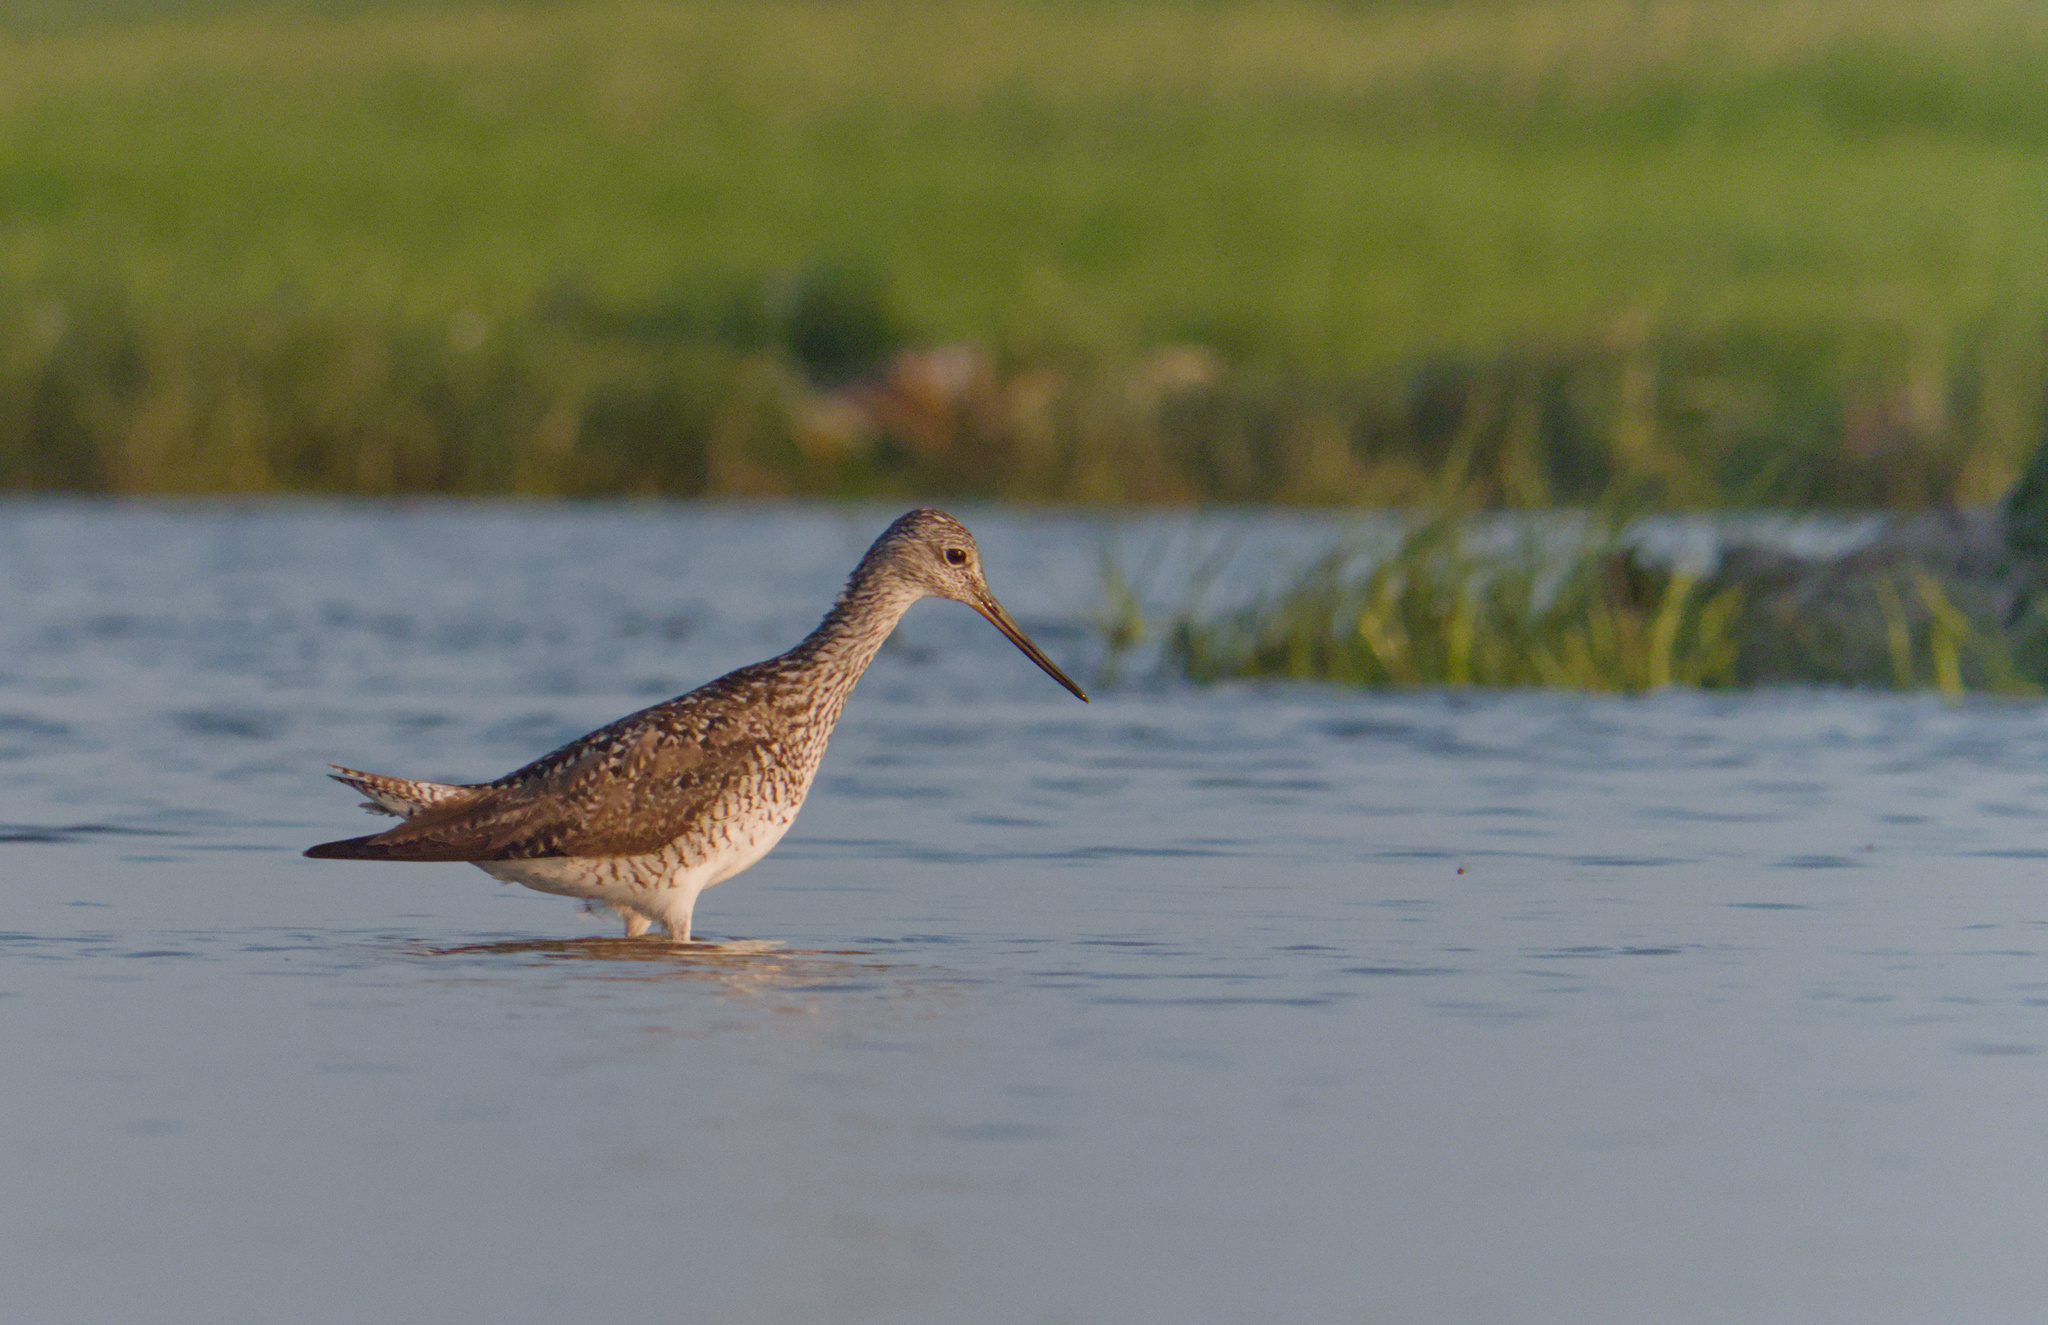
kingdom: Animalia
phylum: Chordata
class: Aves
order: Charadriiformes
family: Scolopacidae
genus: Tringa
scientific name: Tringa melanoleuca
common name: Greater yellowlegs
